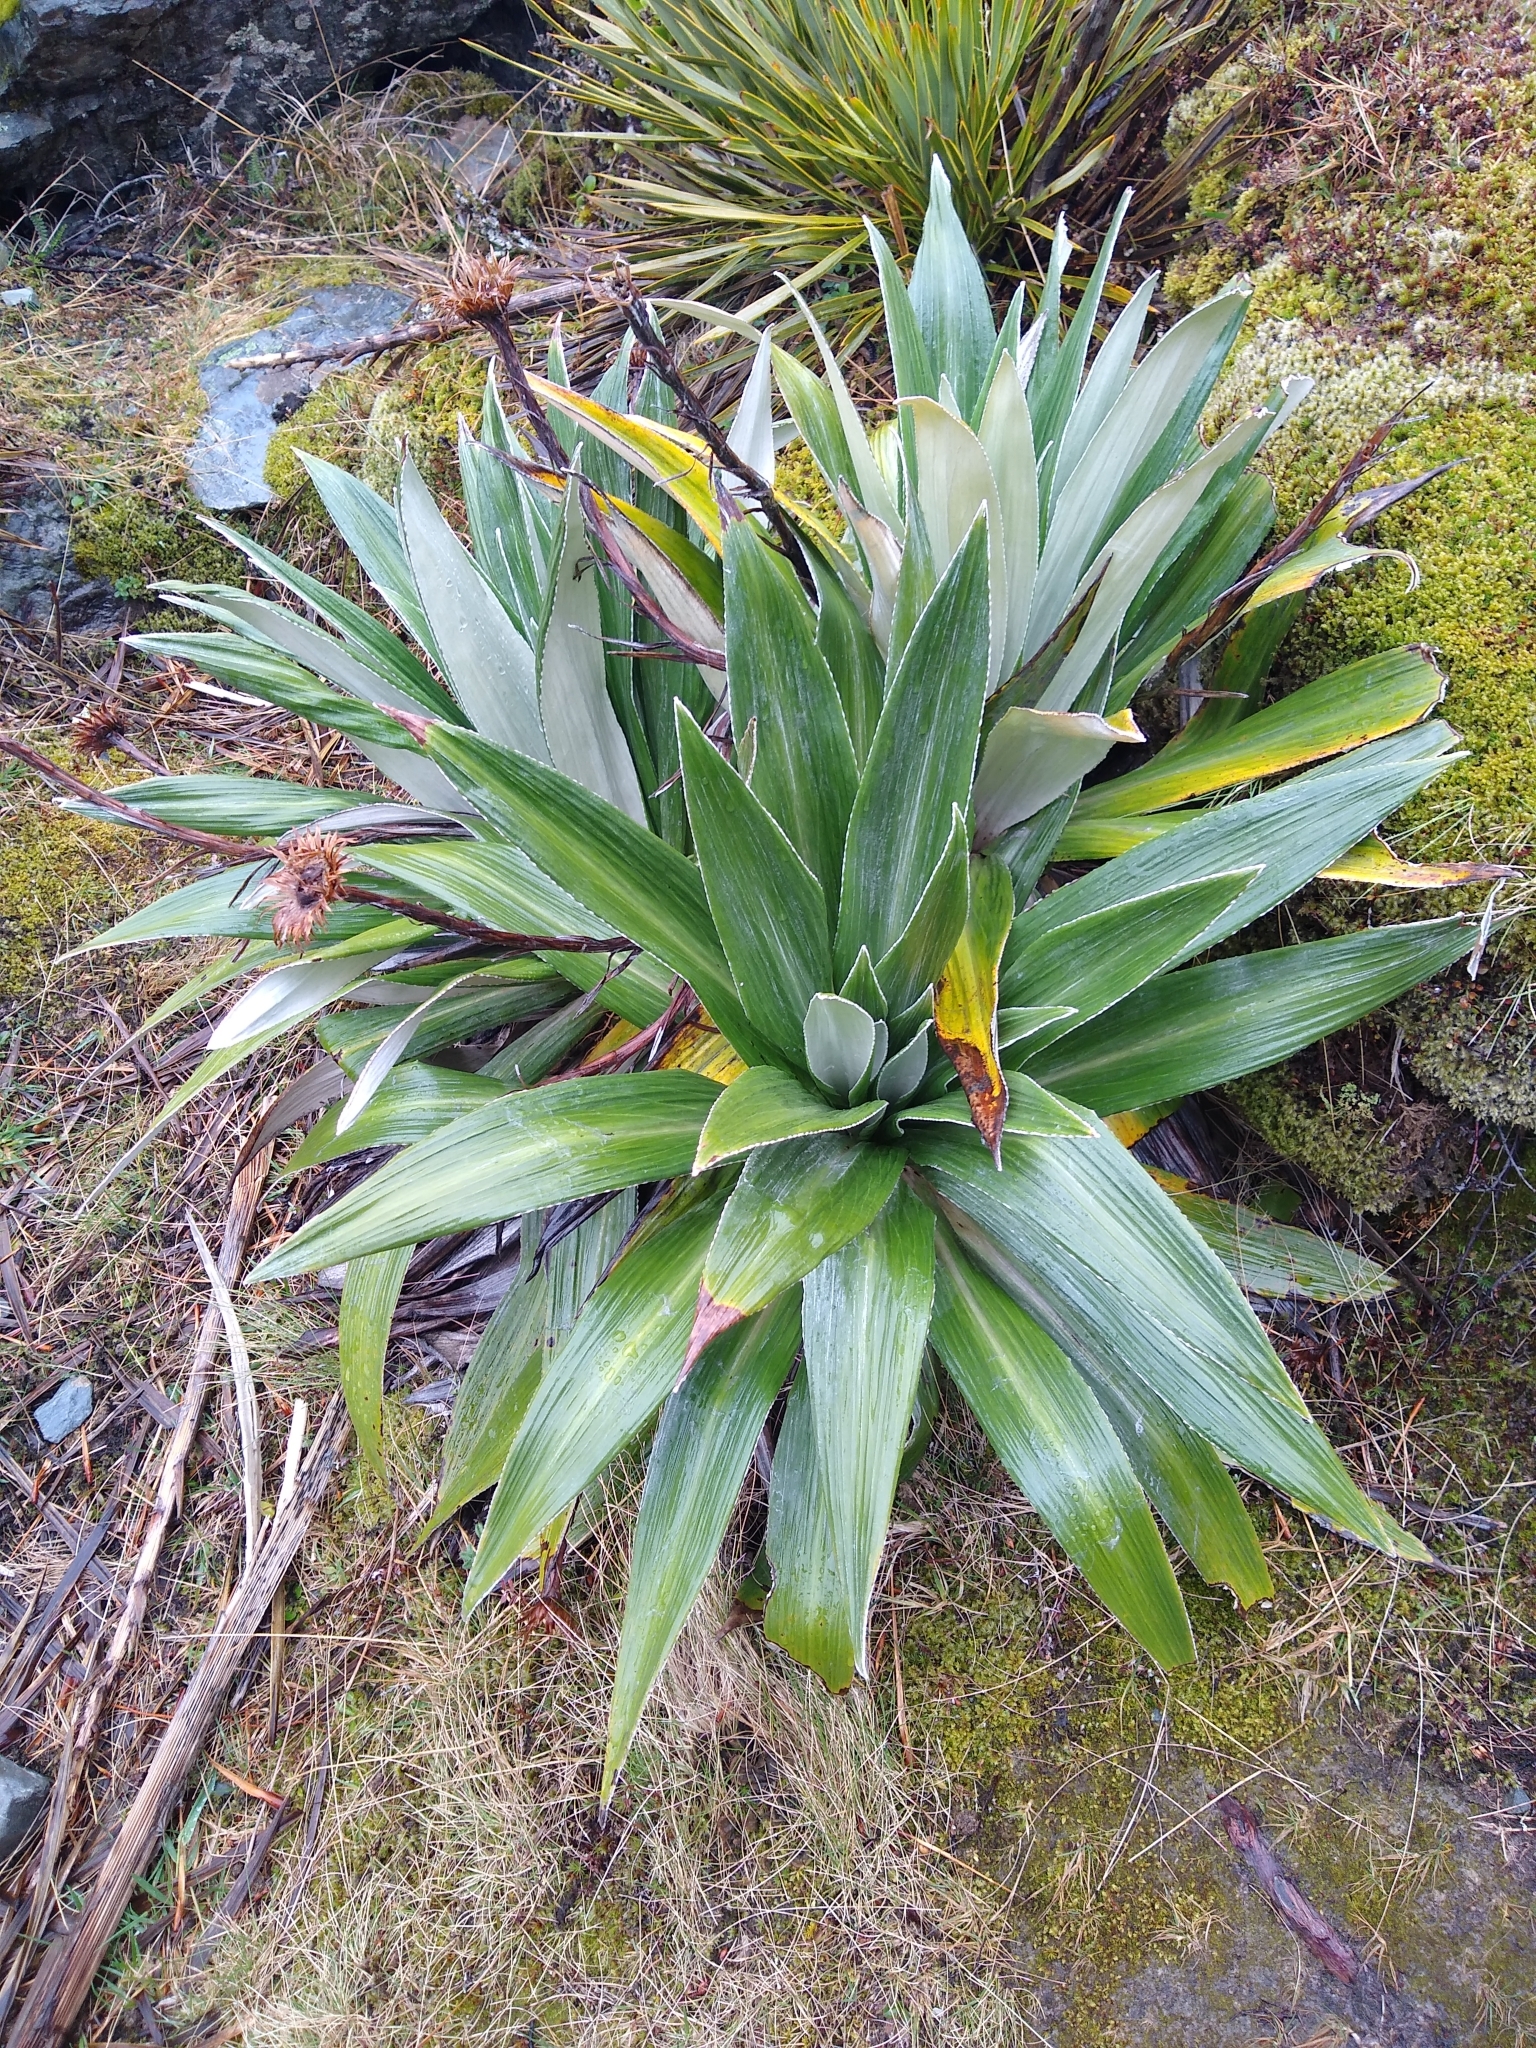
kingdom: Plantae
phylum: Tracheophyta
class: Magnoliopsida
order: Asterales
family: Asteraceae
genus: Celmisia
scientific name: Celmisia semicordata
